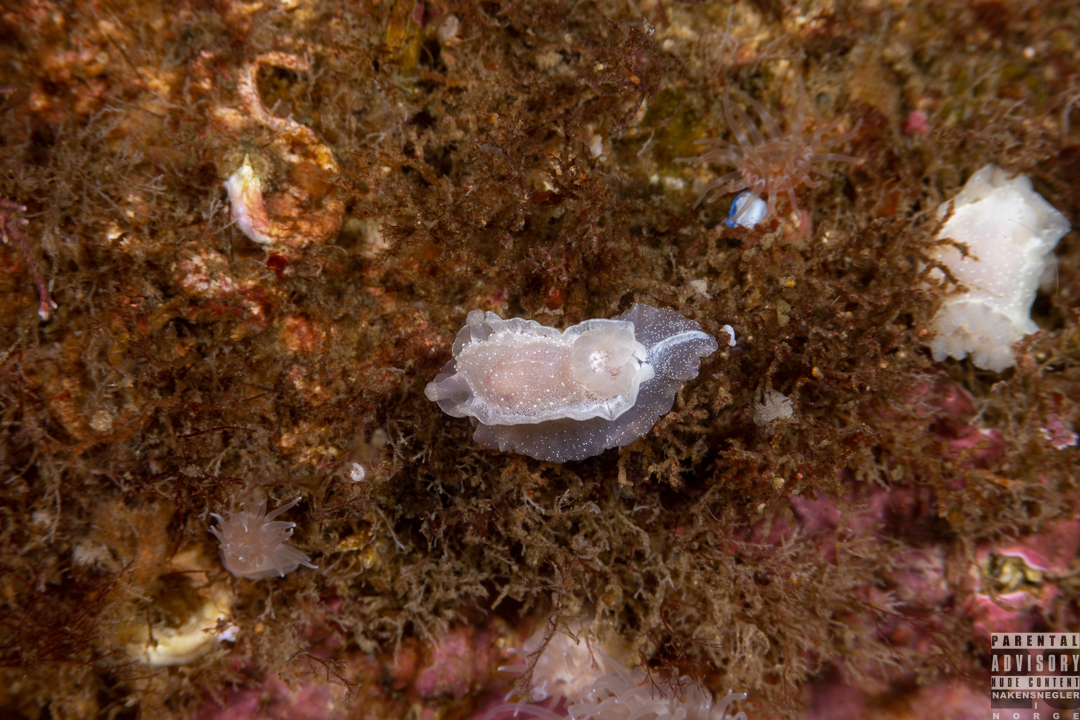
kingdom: Animalia
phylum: Mollusca
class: Gastropoda
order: Nudibranchia
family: Goniodorididae
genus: Okenia
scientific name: Okenia
